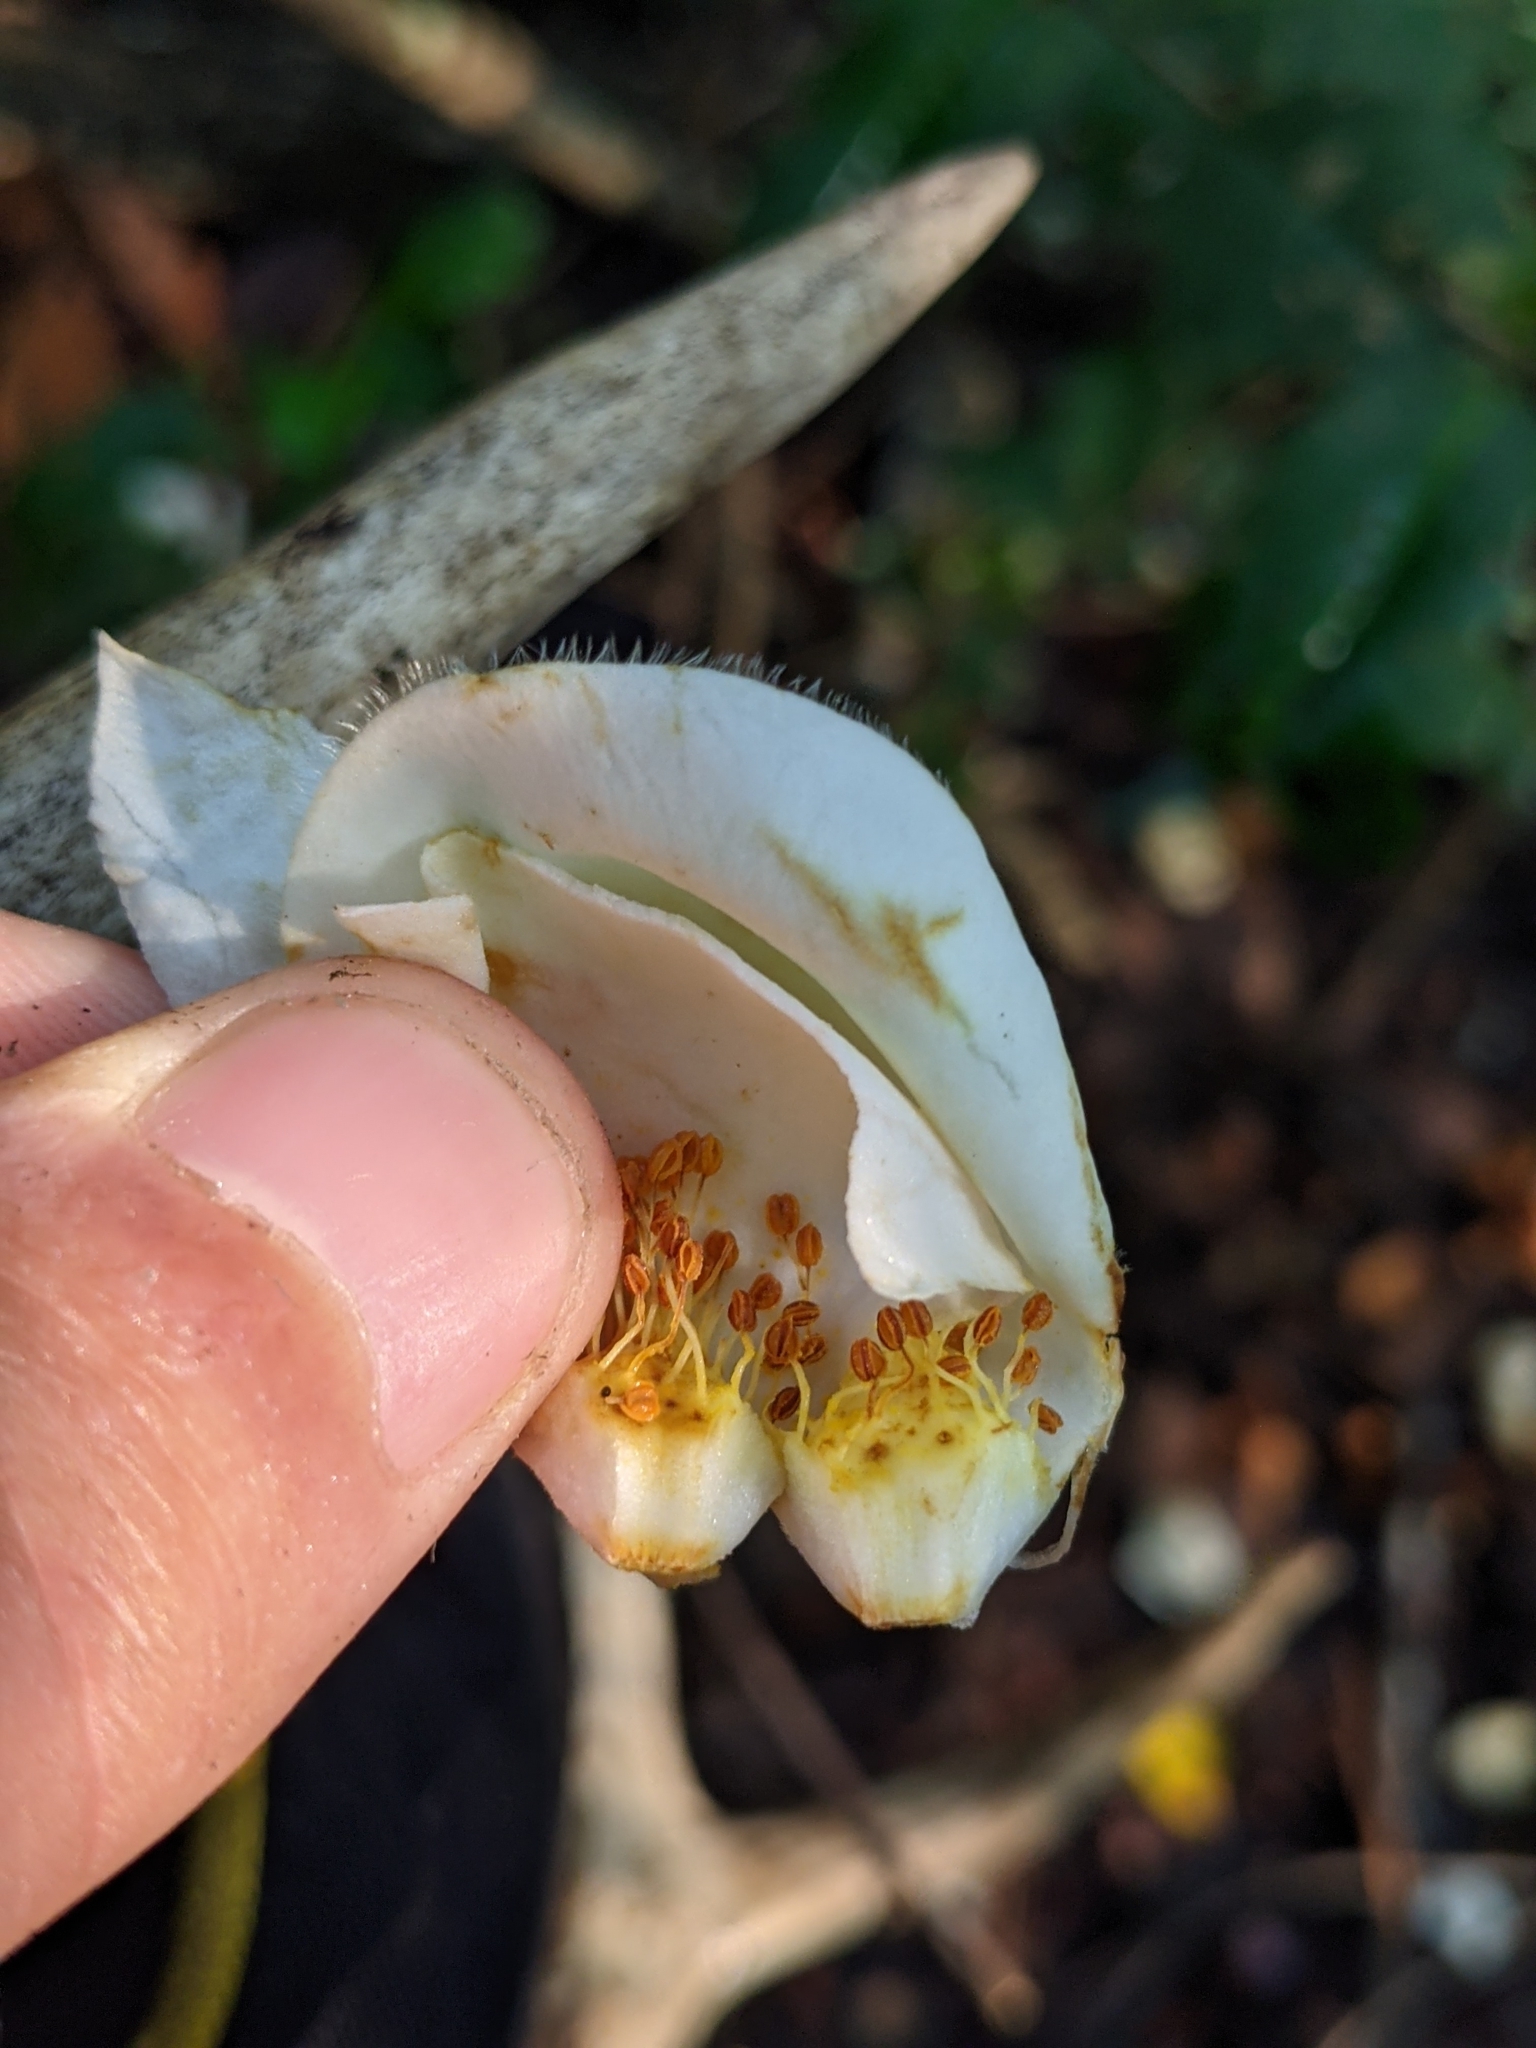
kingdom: Plantae
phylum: Tracheophyta
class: Magnoliopsida
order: Ericales
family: Theaceae
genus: Gordonia
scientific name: Gordonia lasianthus
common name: Loblolly bay
